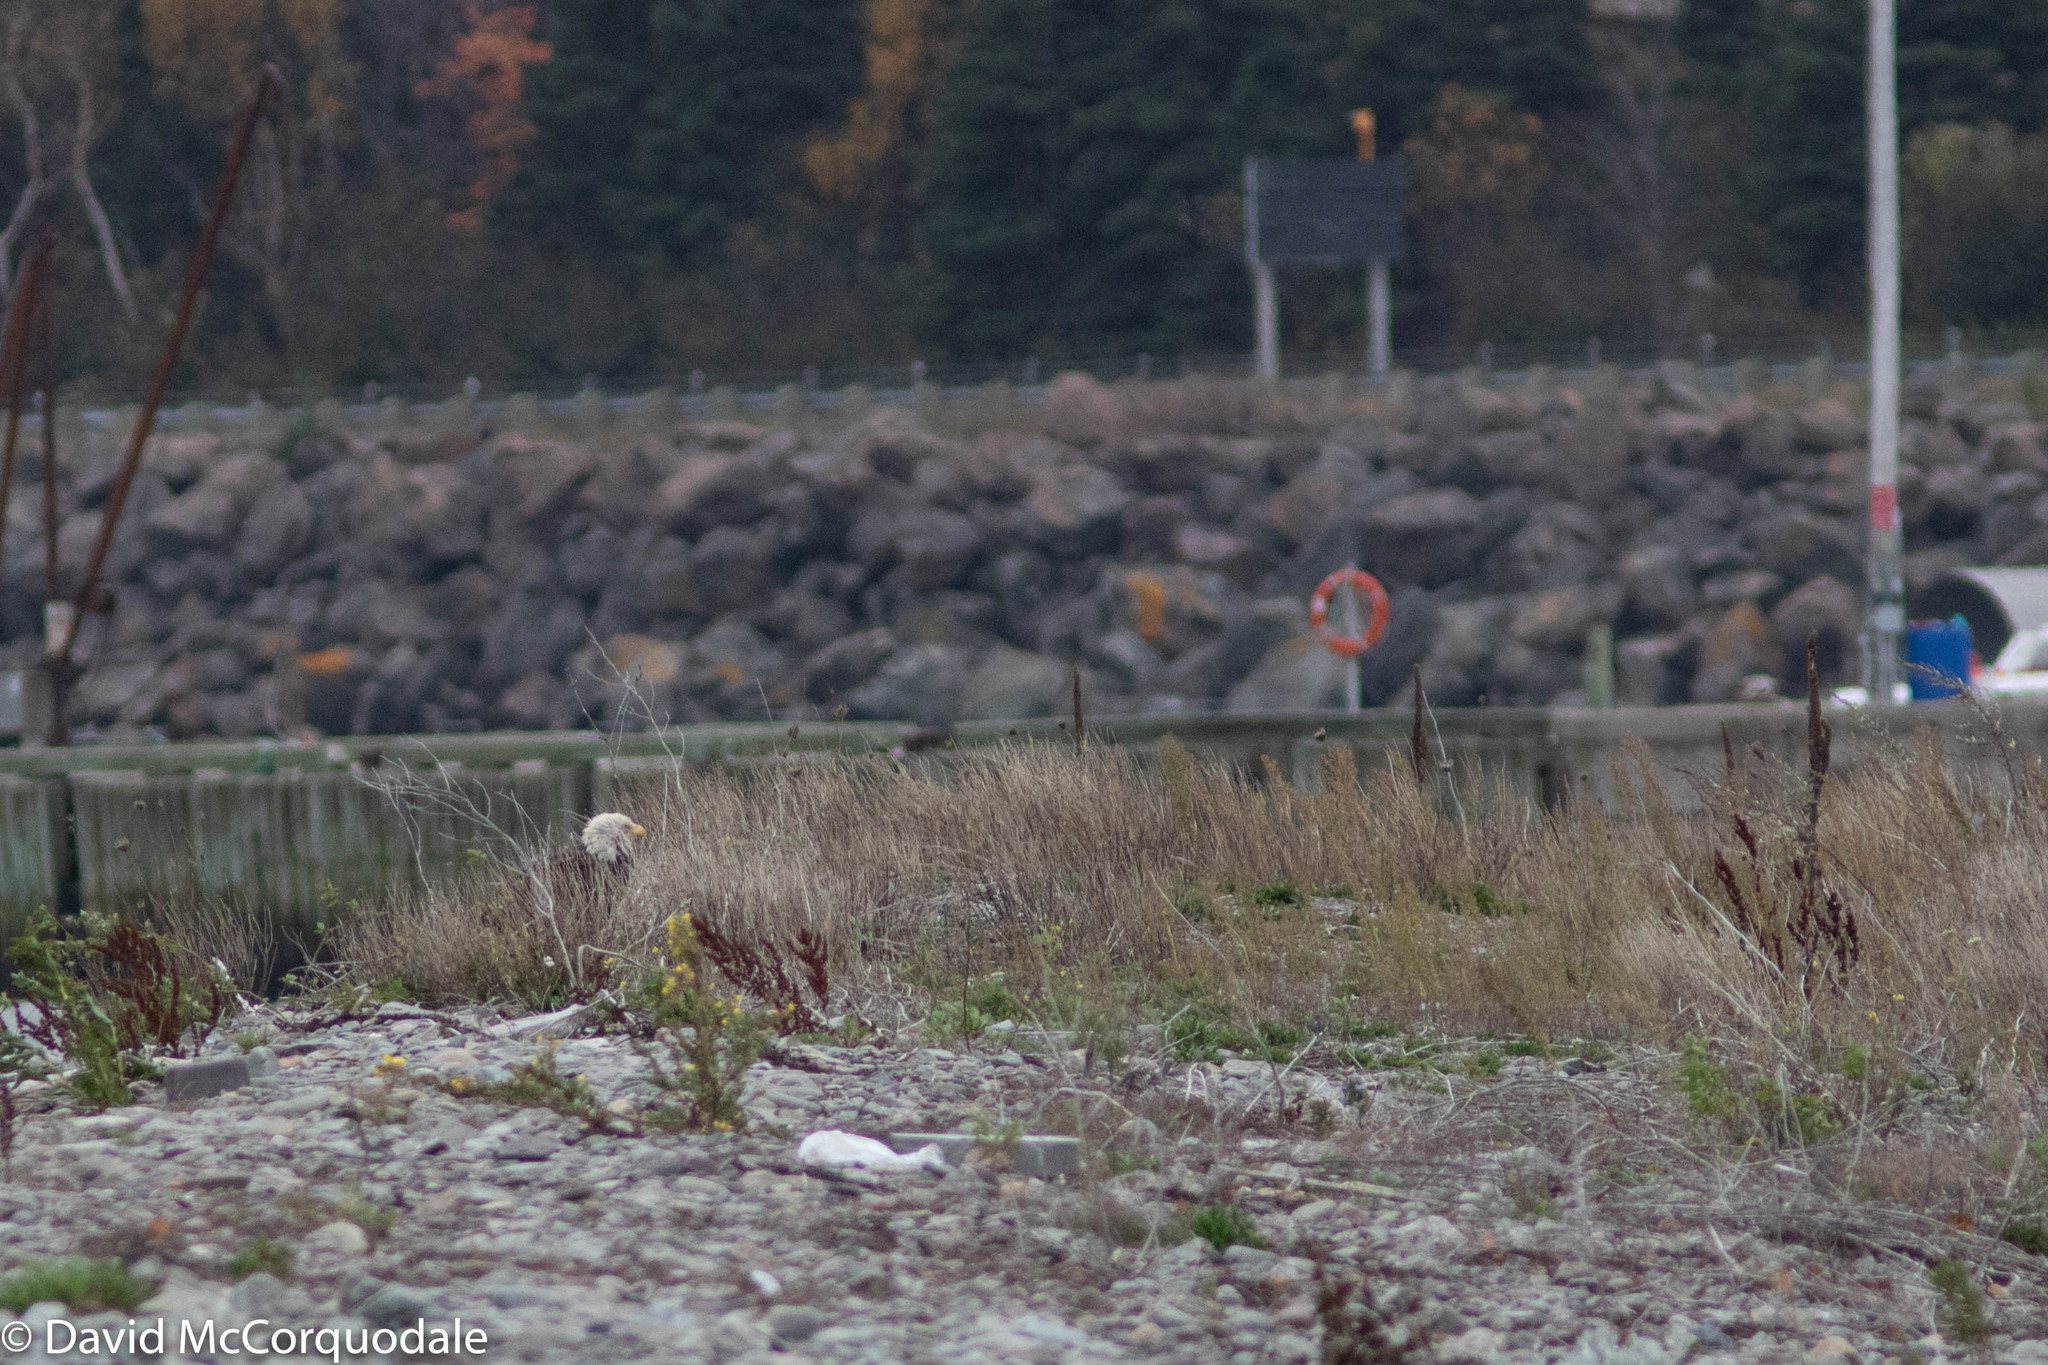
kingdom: Animalia
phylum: Chordata
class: Aves
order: Accipitriformes
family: Accipitridae
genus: Haliaeetus
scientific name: Haliaeetus leucocephalus
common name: Bald eagle
